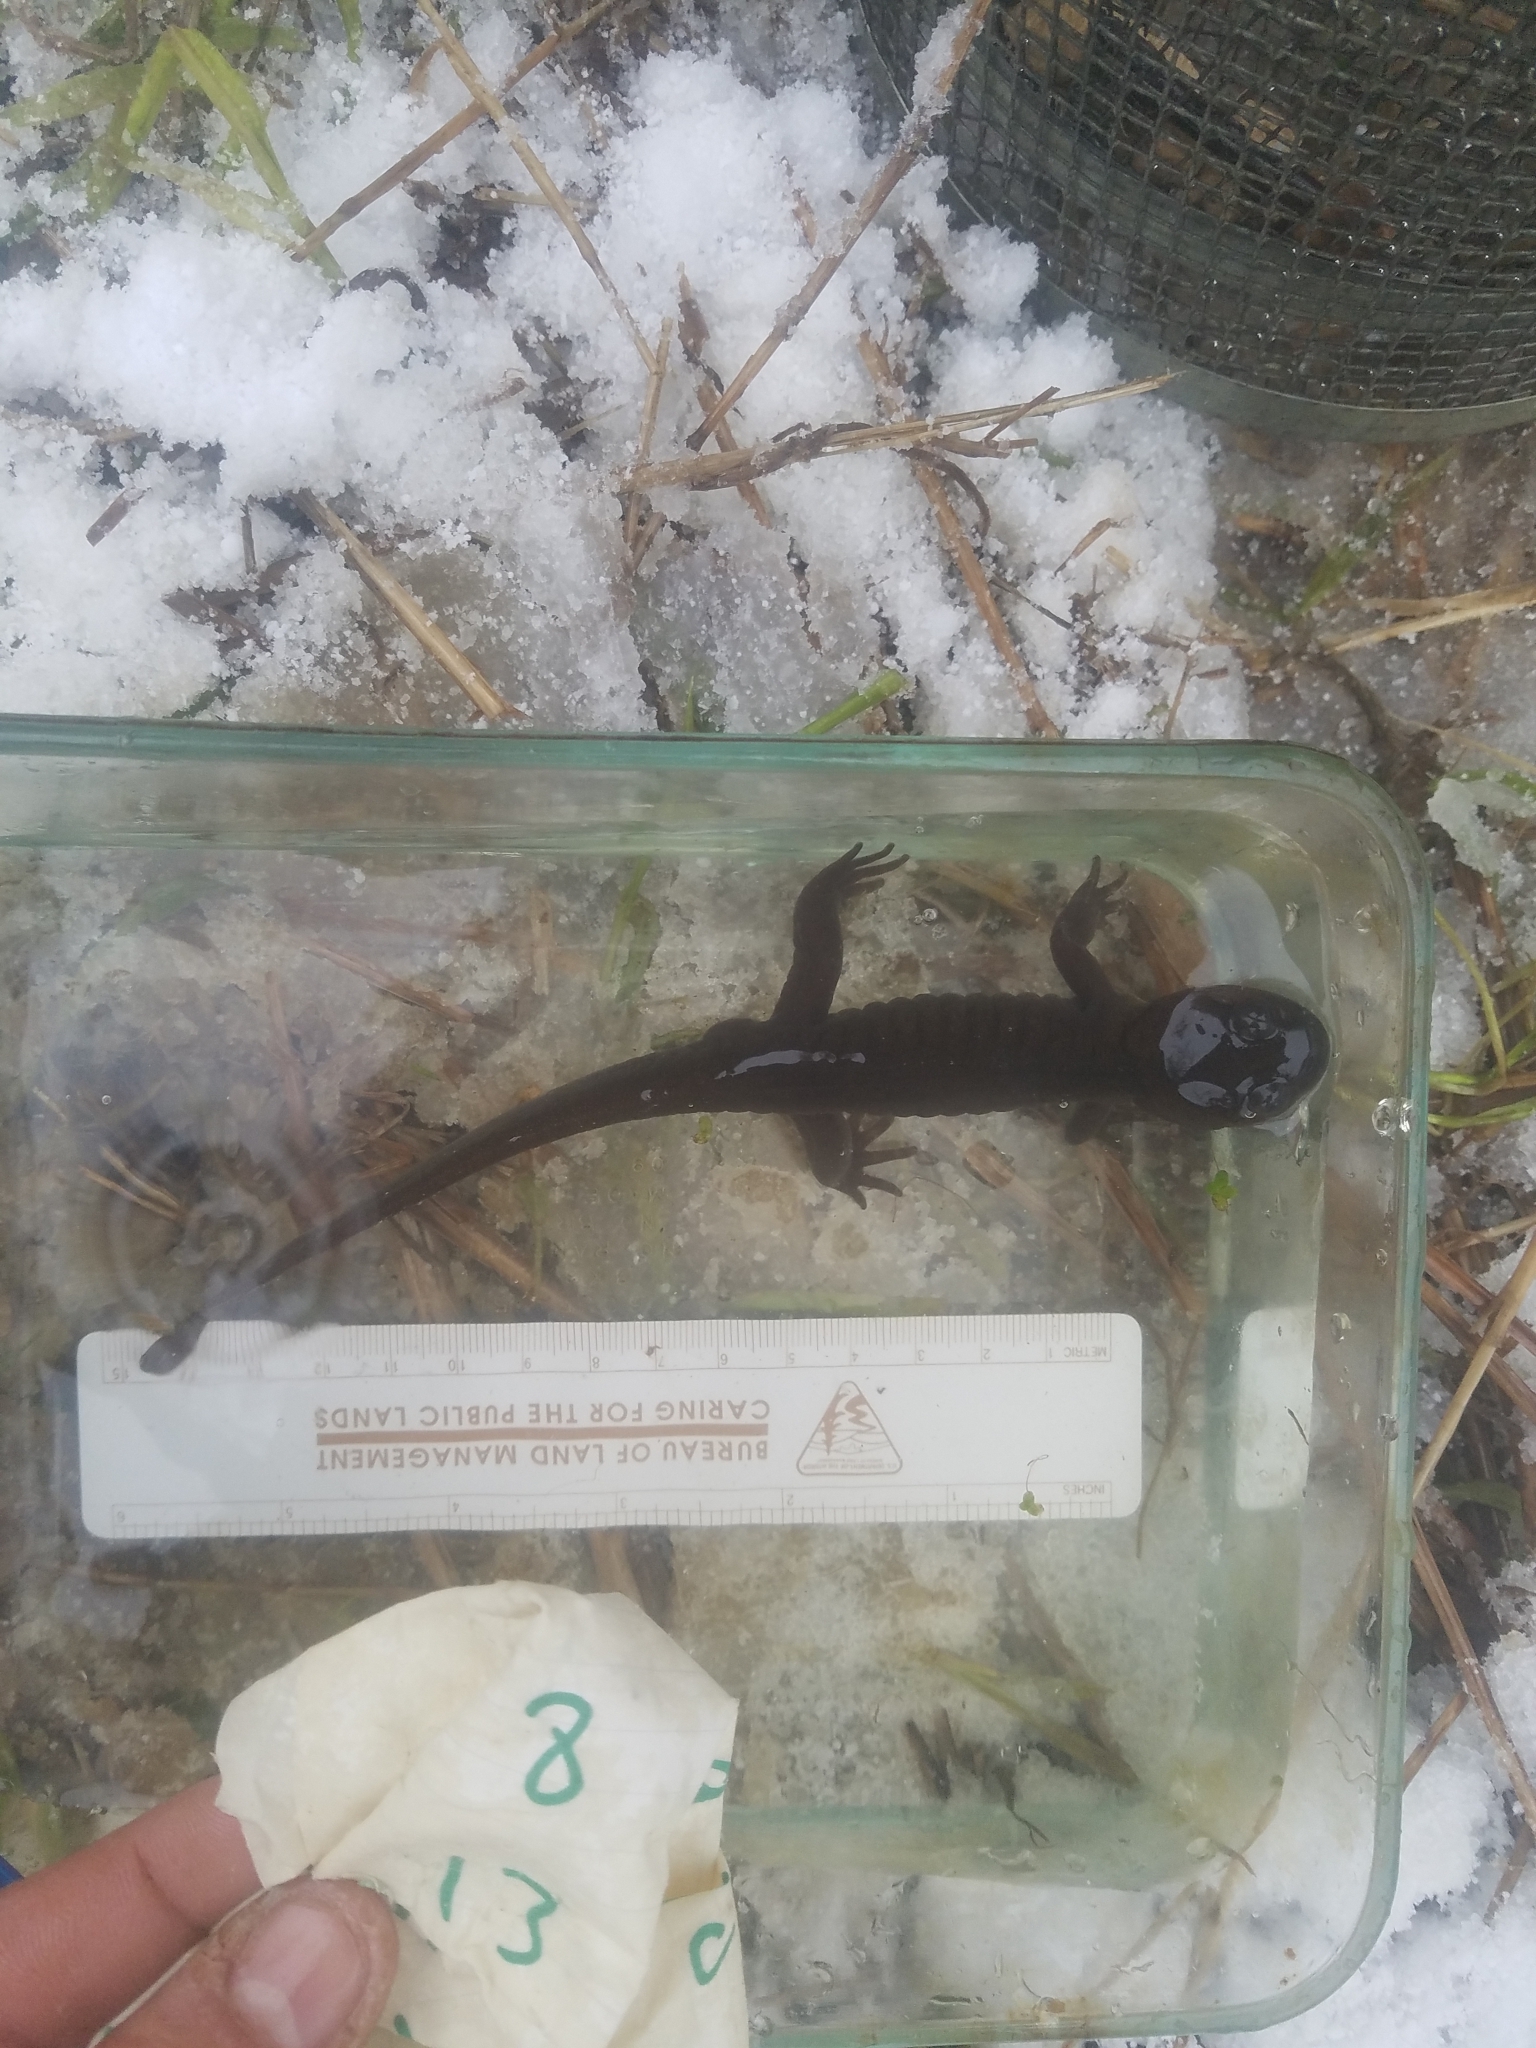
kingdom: Animalia
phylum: Chordata
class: Amphibia
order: Caudata
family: Ambystomatidae
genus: Ambystoma
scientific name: Ambystoma gracile
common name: Northwestern salamander
